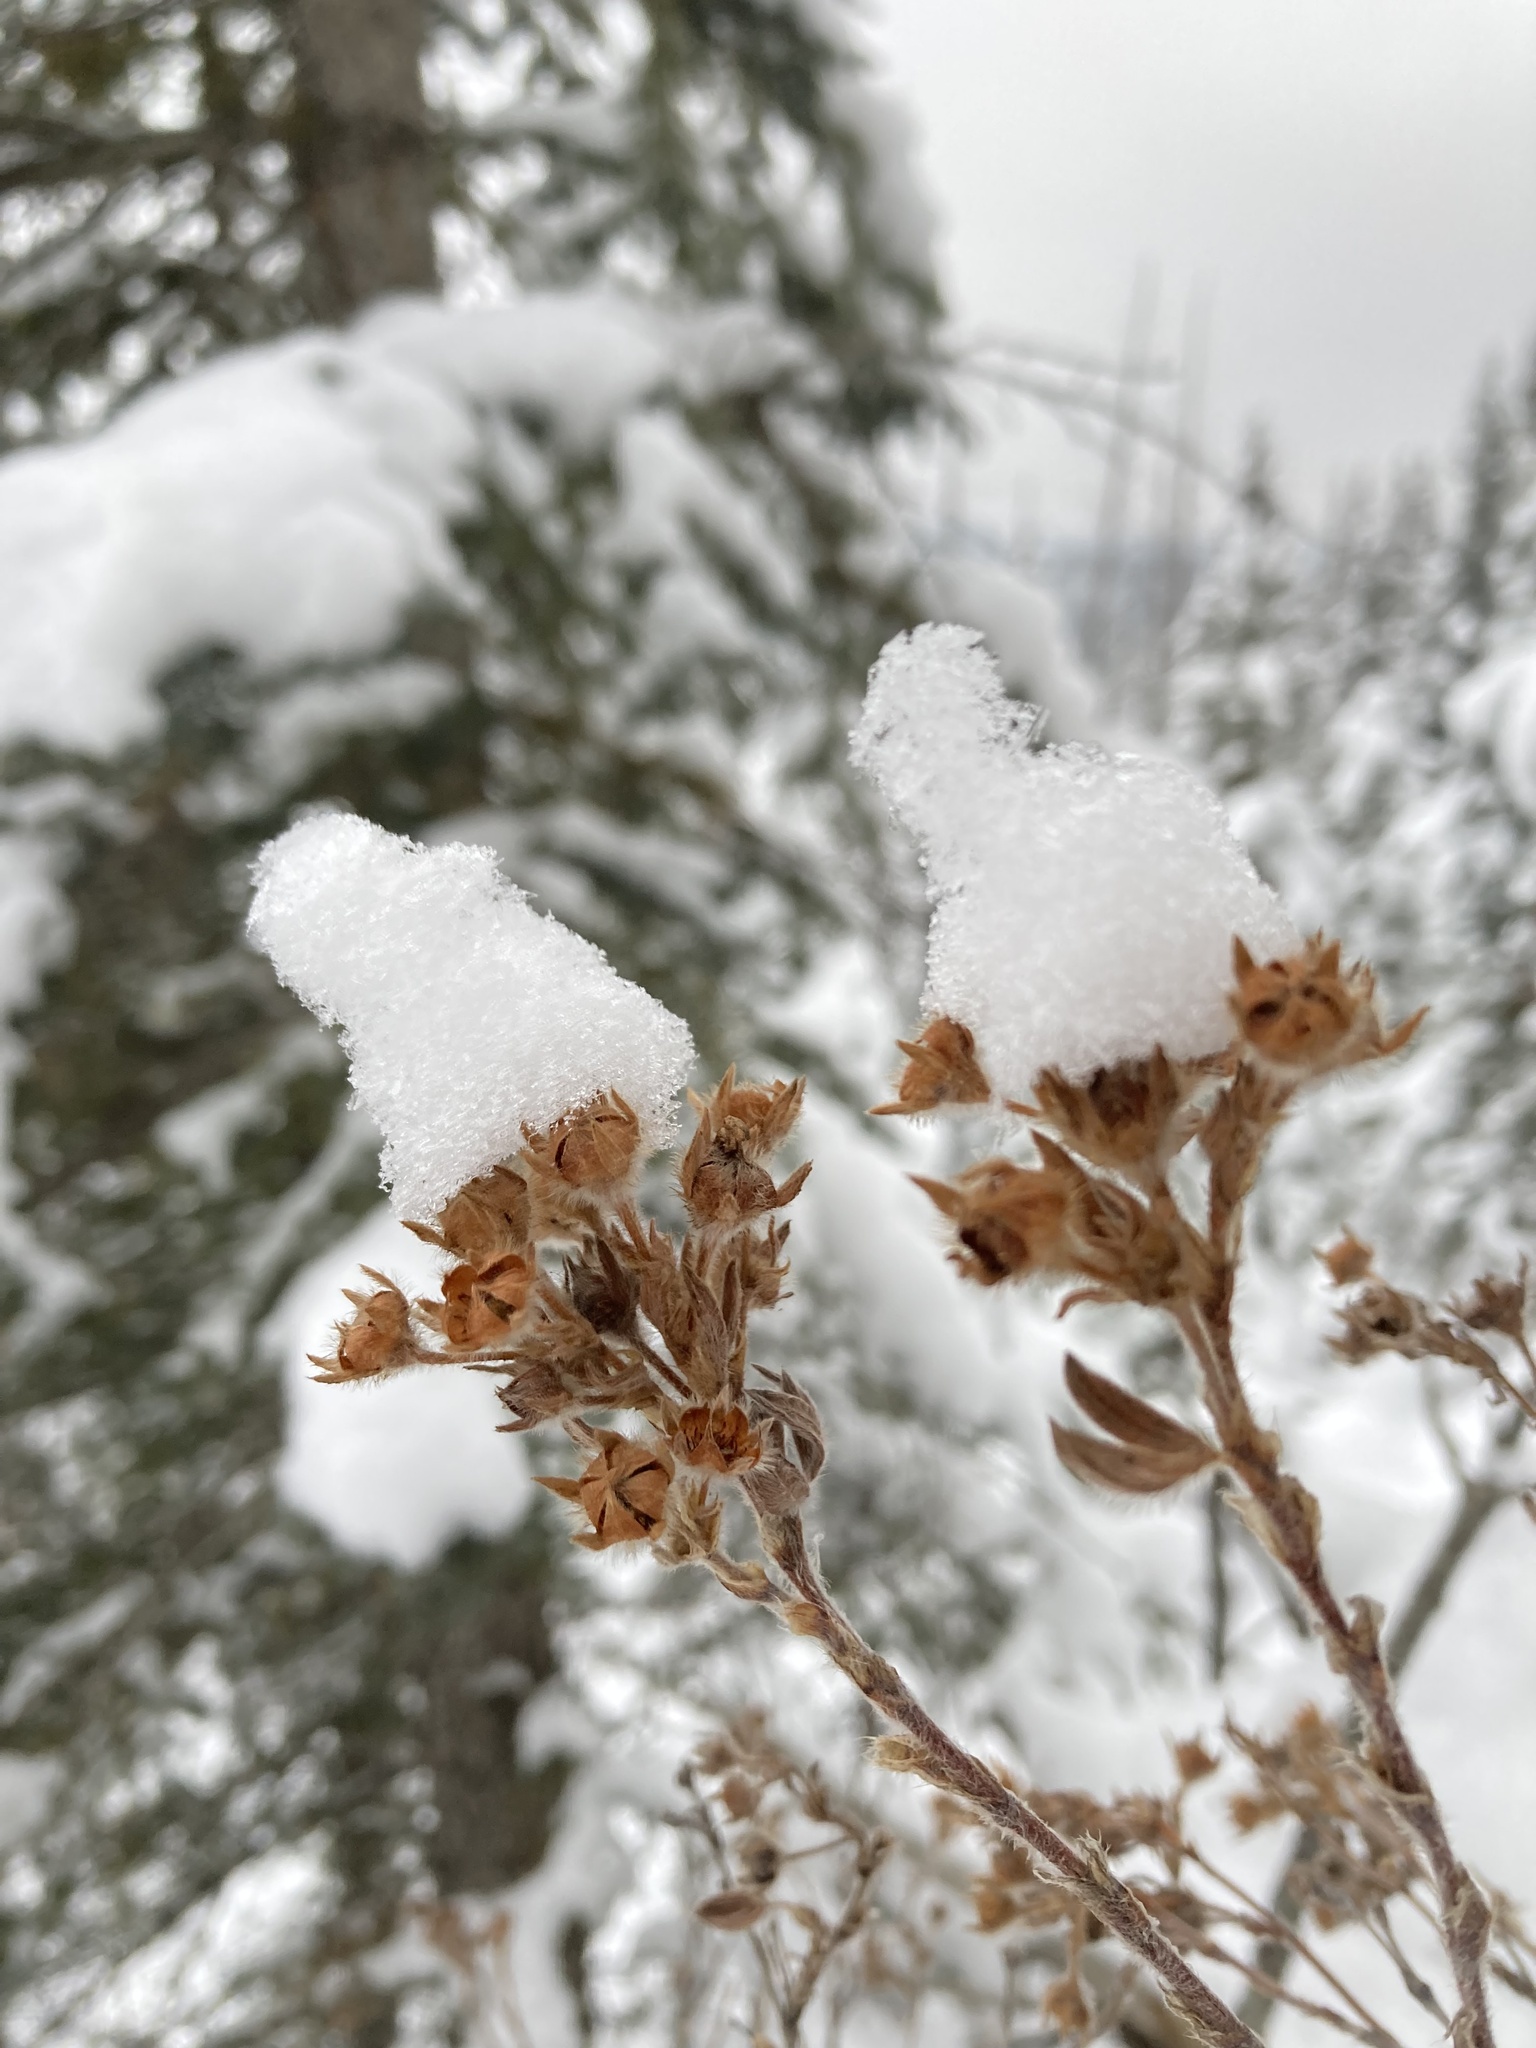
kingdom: Plantae
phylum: Tracheophyta
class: Magnoliopsida
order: Rosales
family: Rosaceae
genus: Dasiphora
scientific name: Dasiphora fruticosa
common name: Shrubby cinquefoil
